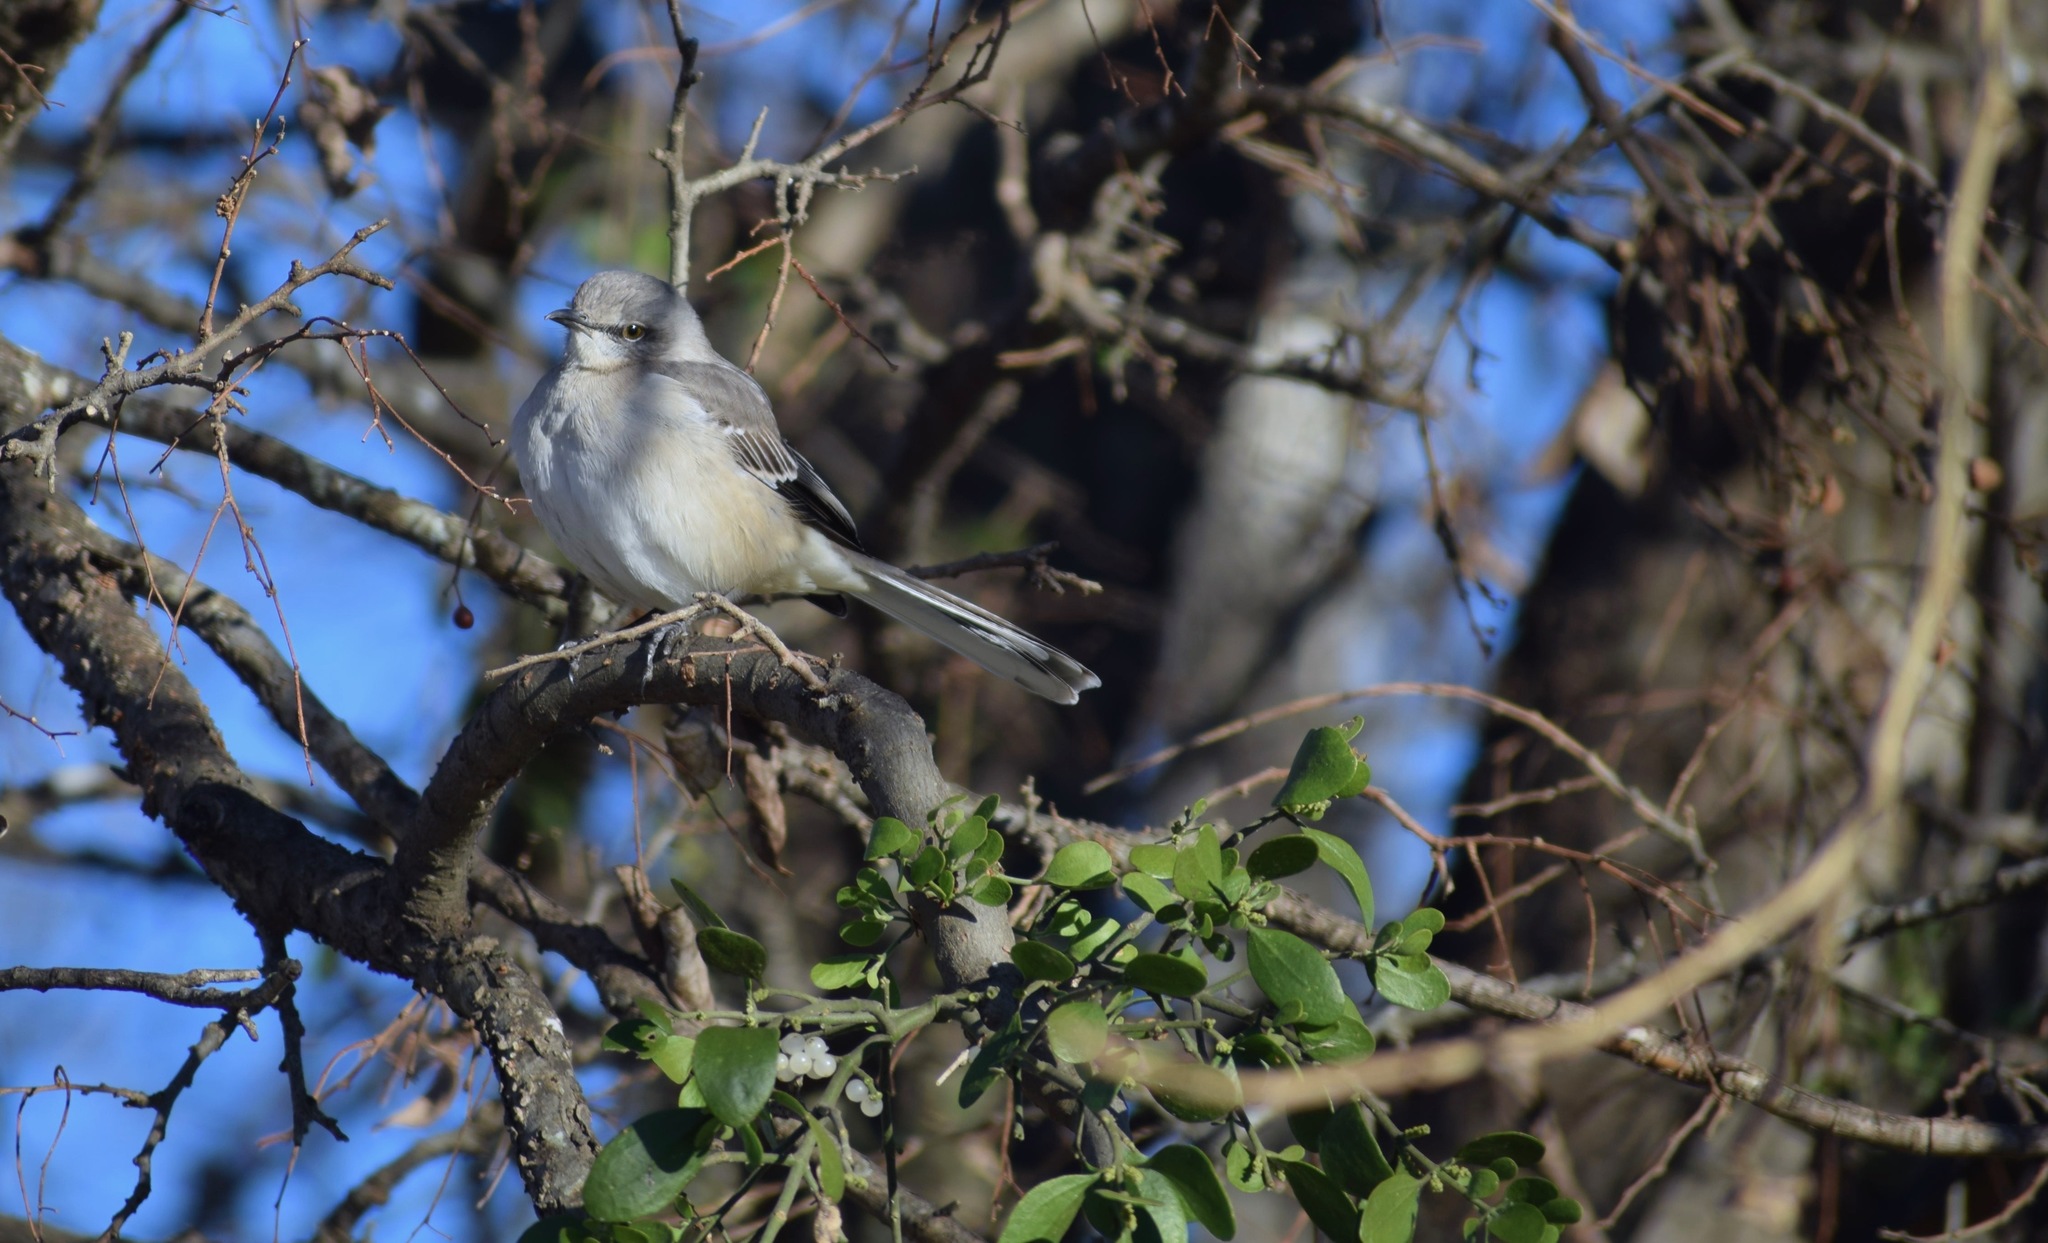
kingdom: Animalia
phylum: Chordata
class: Aves
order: Passeriformes
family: Mimidae
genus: Mimus
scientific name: Mimus polyglottos
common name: Northern mockingbird
